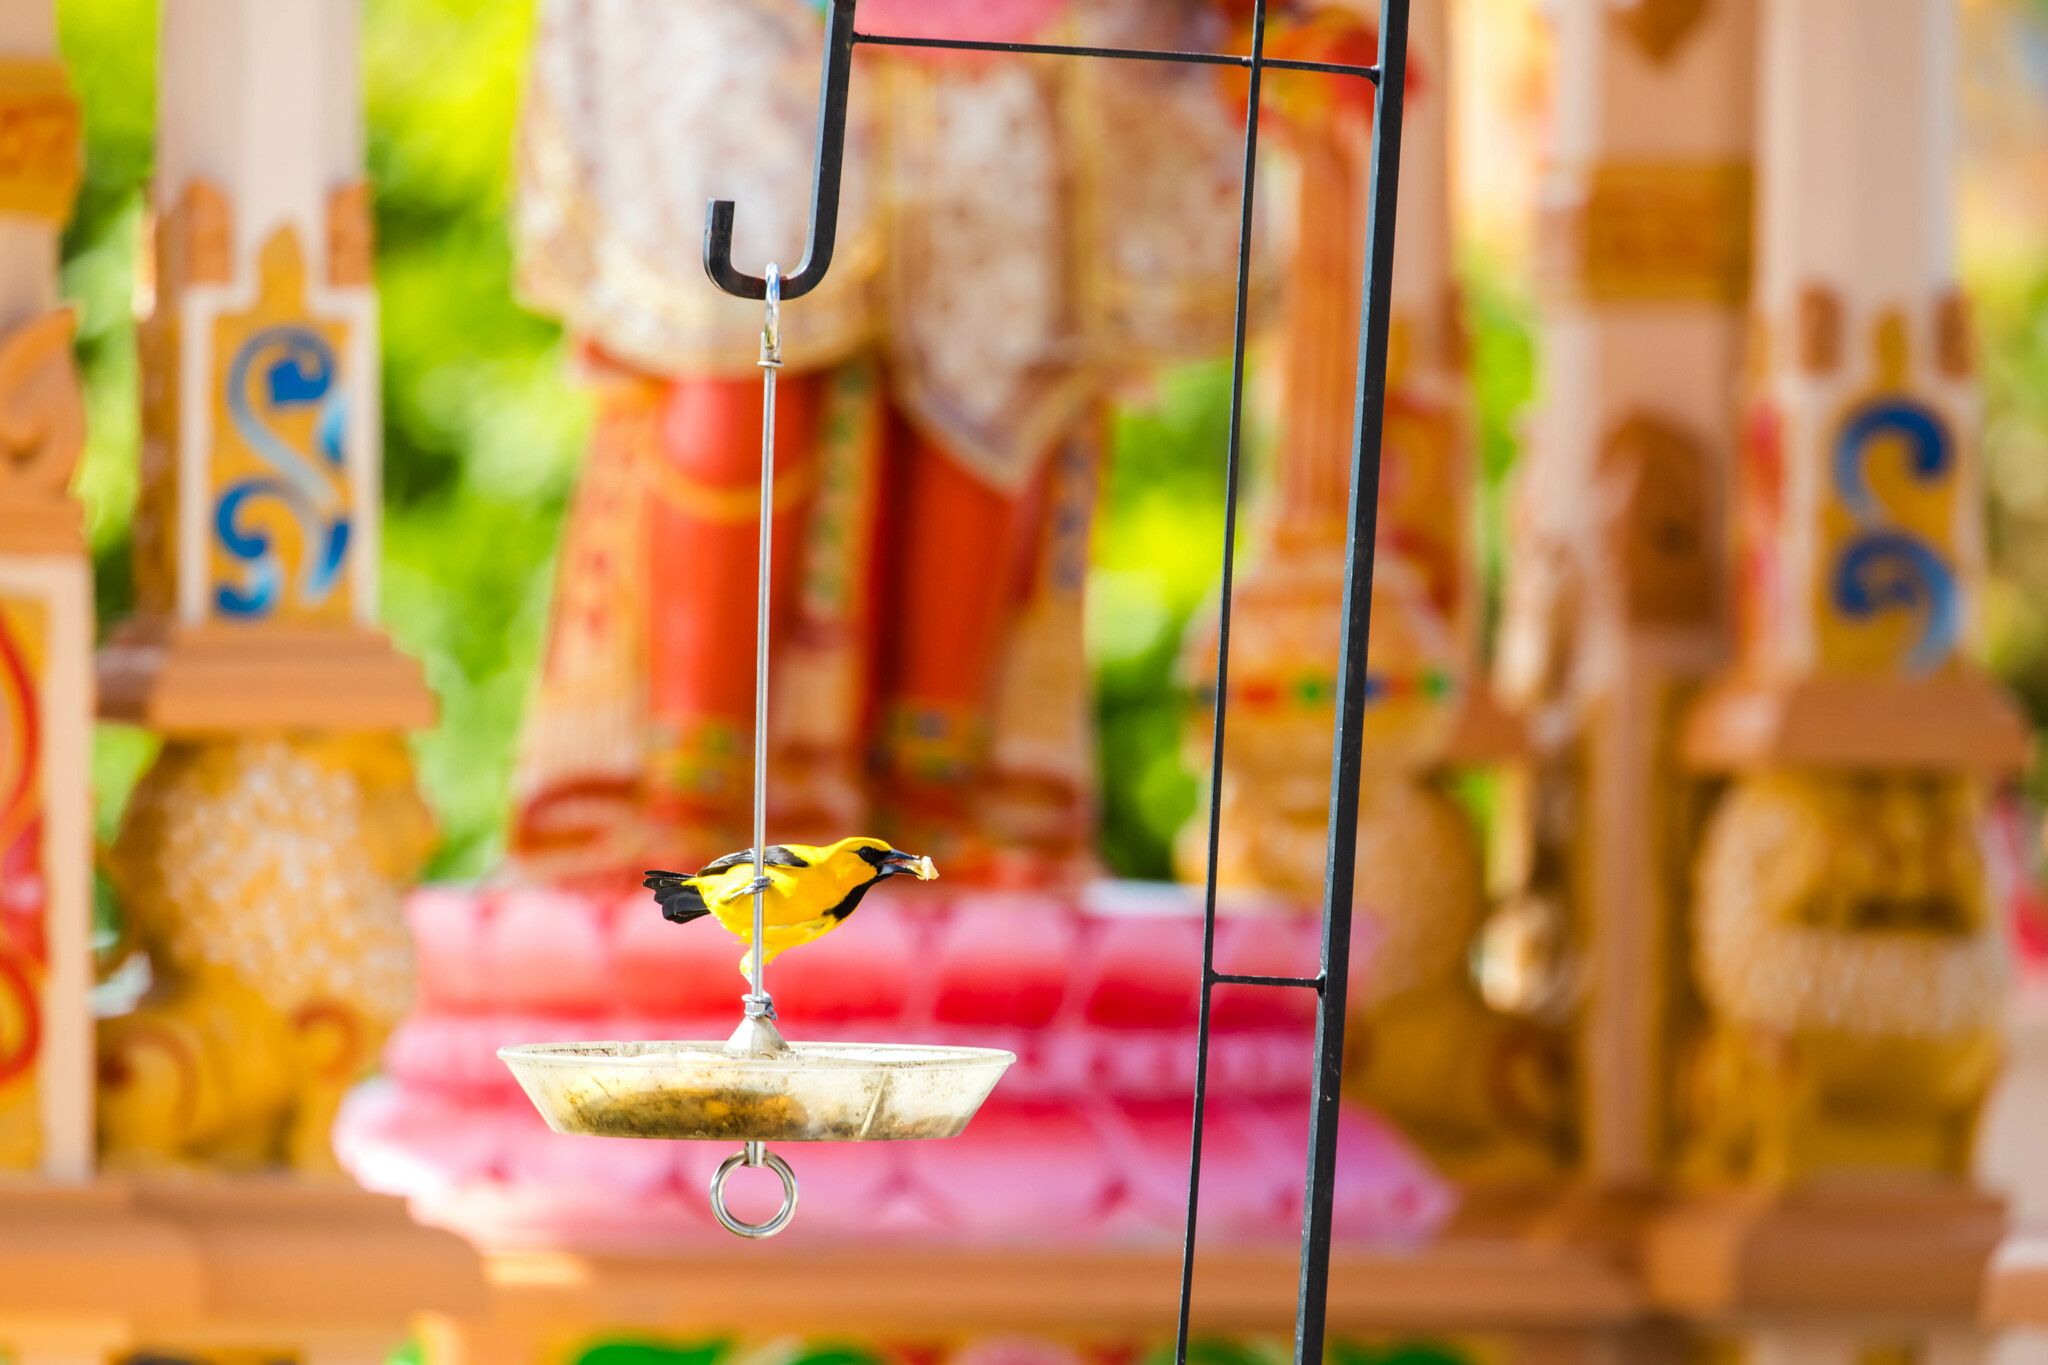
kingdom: Animalia
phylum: Chordata
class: Aves
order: Passeriformes
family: Icteridae
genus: Icterus
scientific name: Icterus nigrogularis
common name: Yellow oriole
